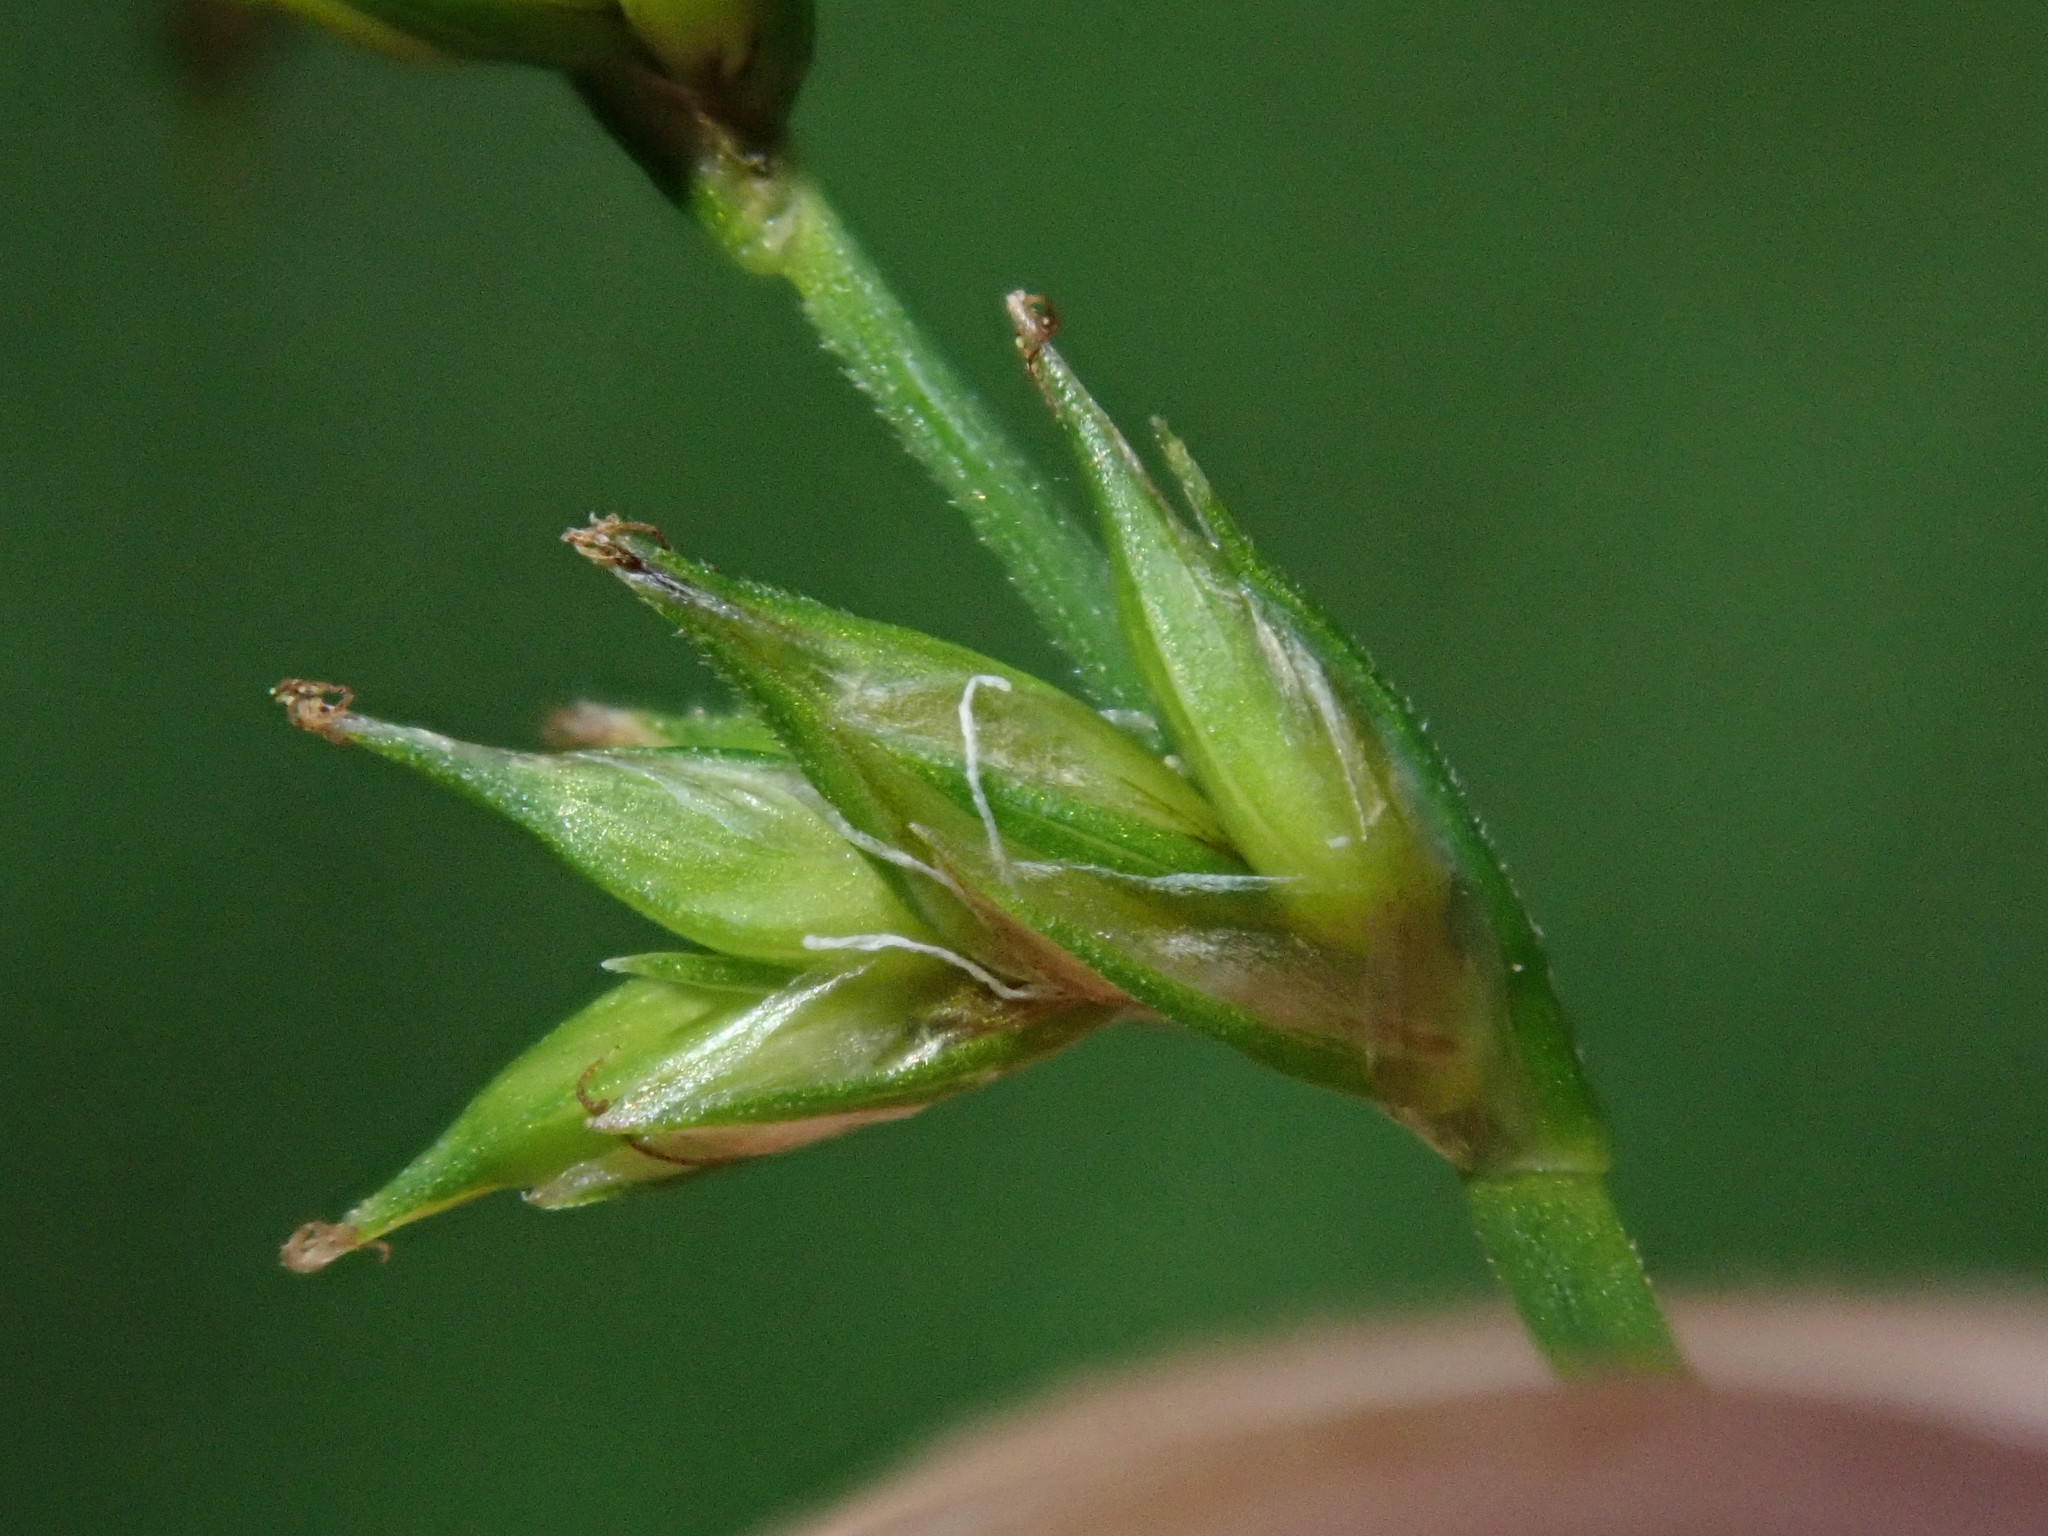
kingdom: Plantae
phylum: Tracheophyta
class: Liliopsida
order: Poales
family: Cyperaceae
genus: Carex
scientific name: Carex laeviculmis
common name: Smooth sedge
